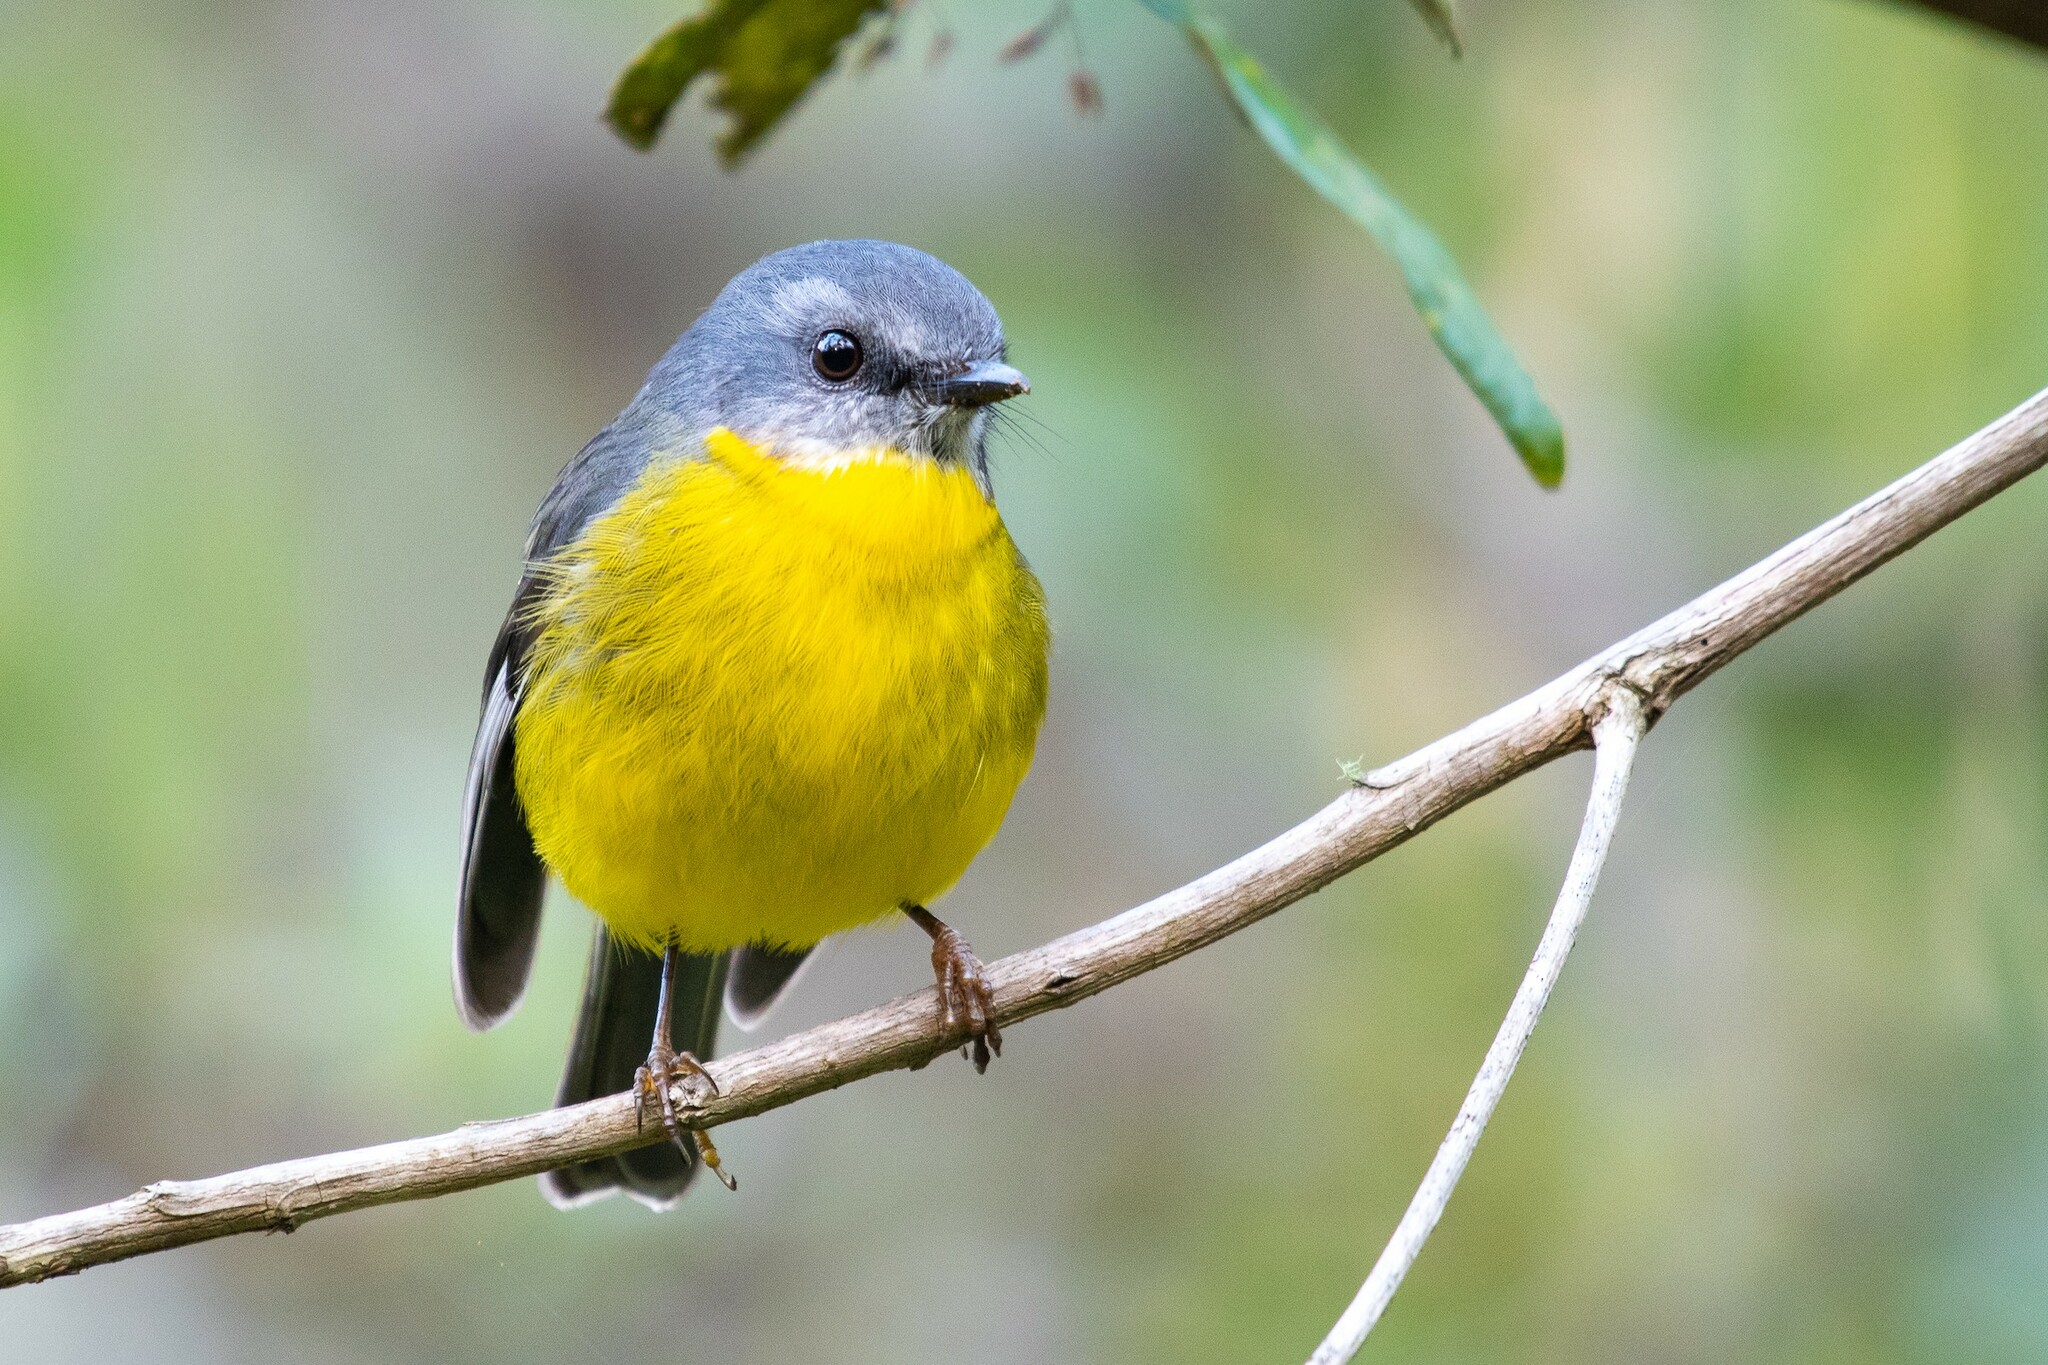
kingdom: Animalia
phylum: Chordata
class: Aves
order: Passeriformes
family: Petroicidae
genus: Eopsaltria
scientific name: Eopsaltria australis
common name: Eastern yellow robin
